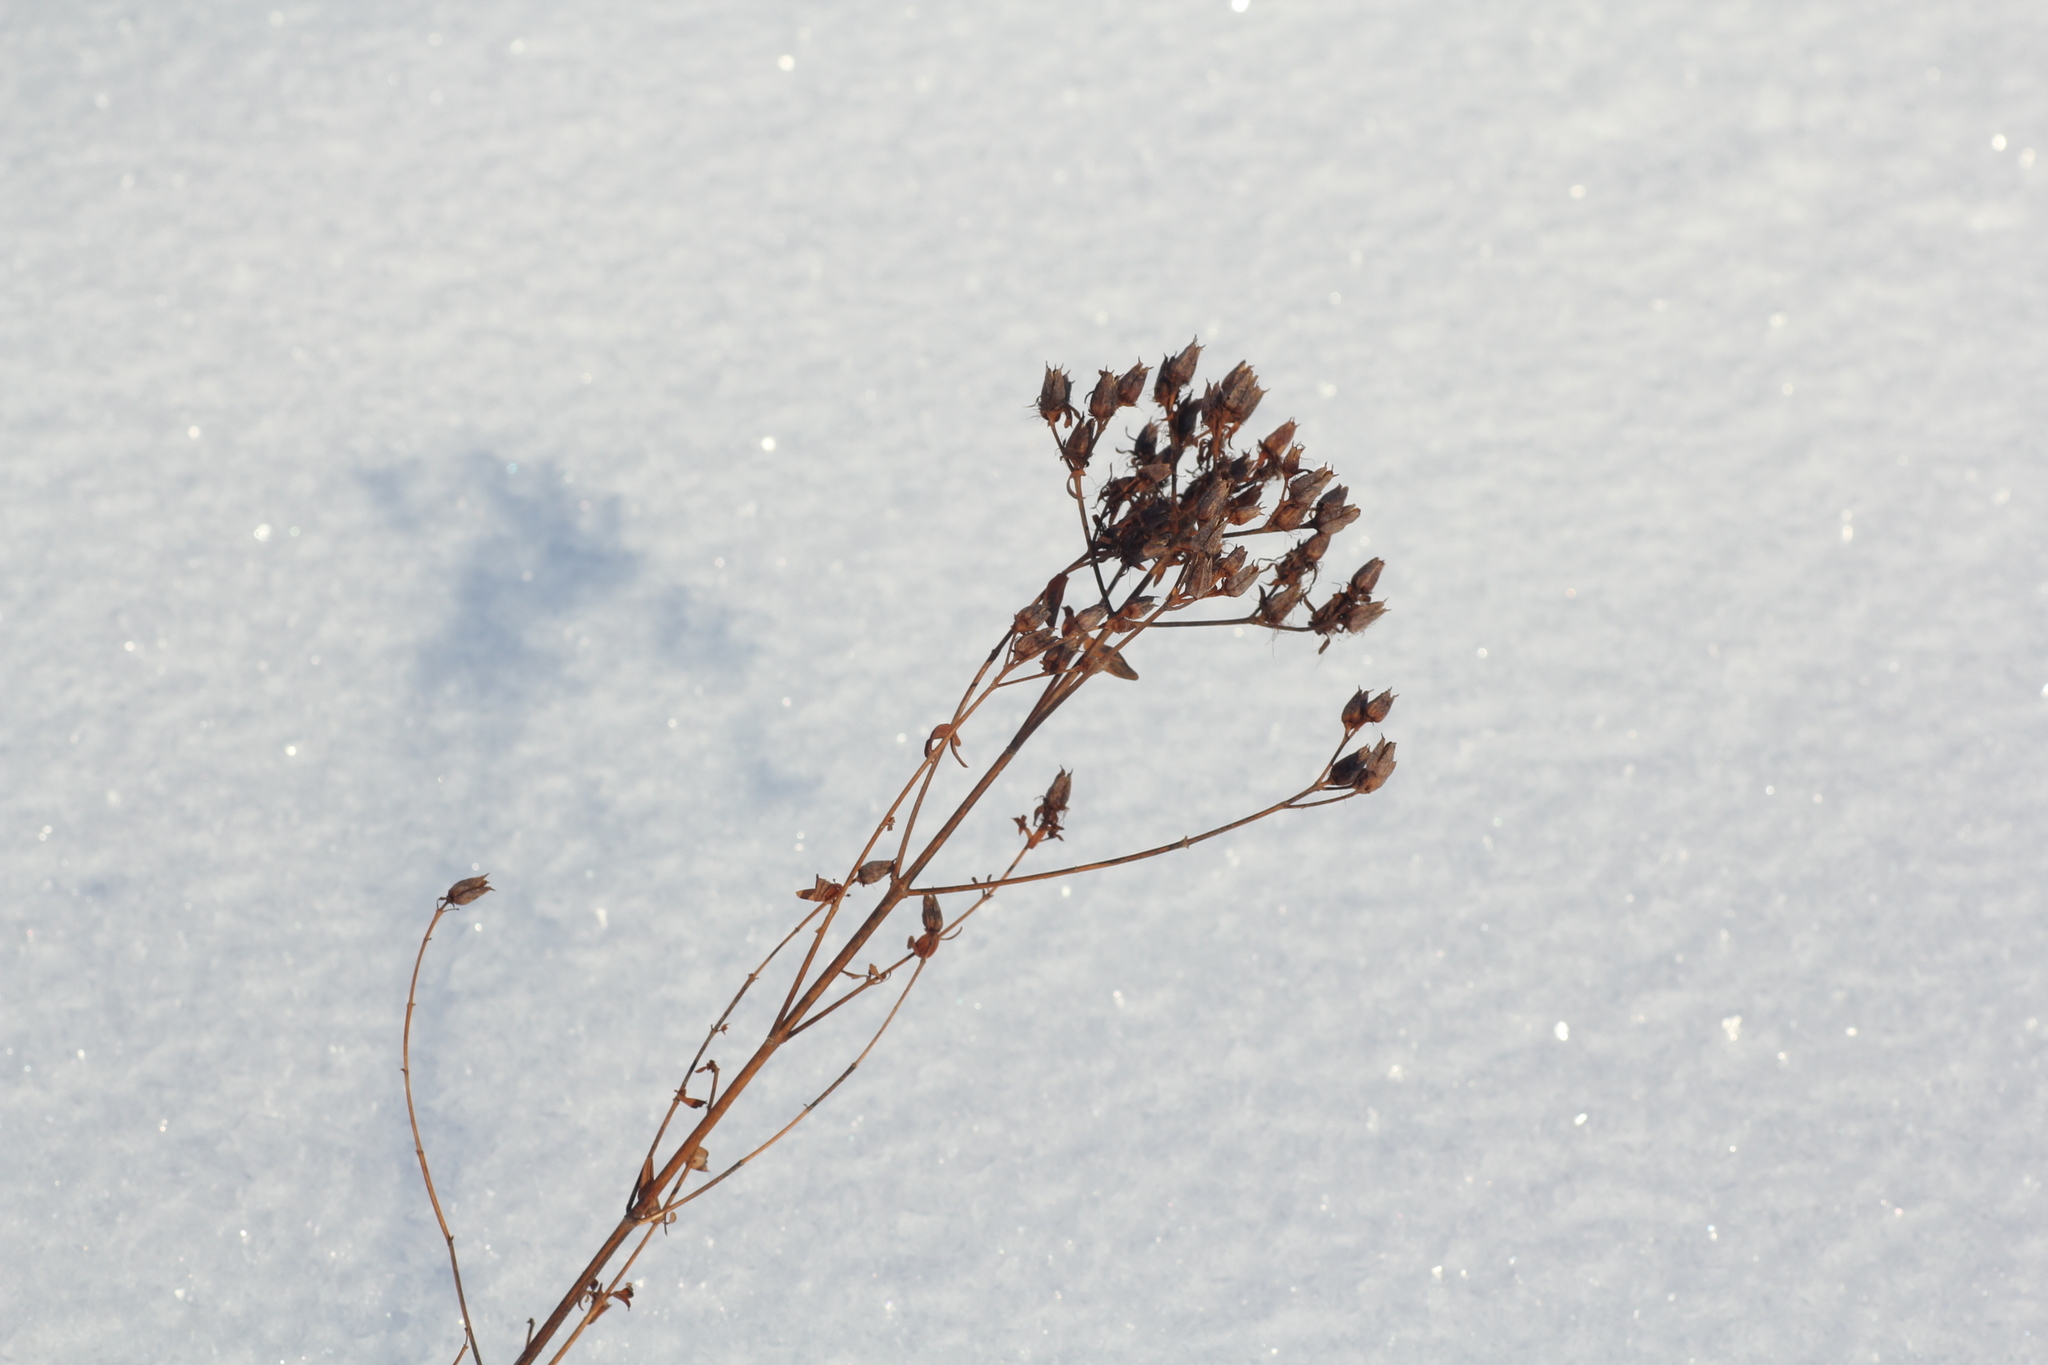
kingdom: Plantae
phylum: Tracheophyta
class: Magnoliopsida
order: Malpighiales
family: Hypericaceae
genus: Hypericum
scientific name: Hypericum perforatum
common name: Common st. johnswort
